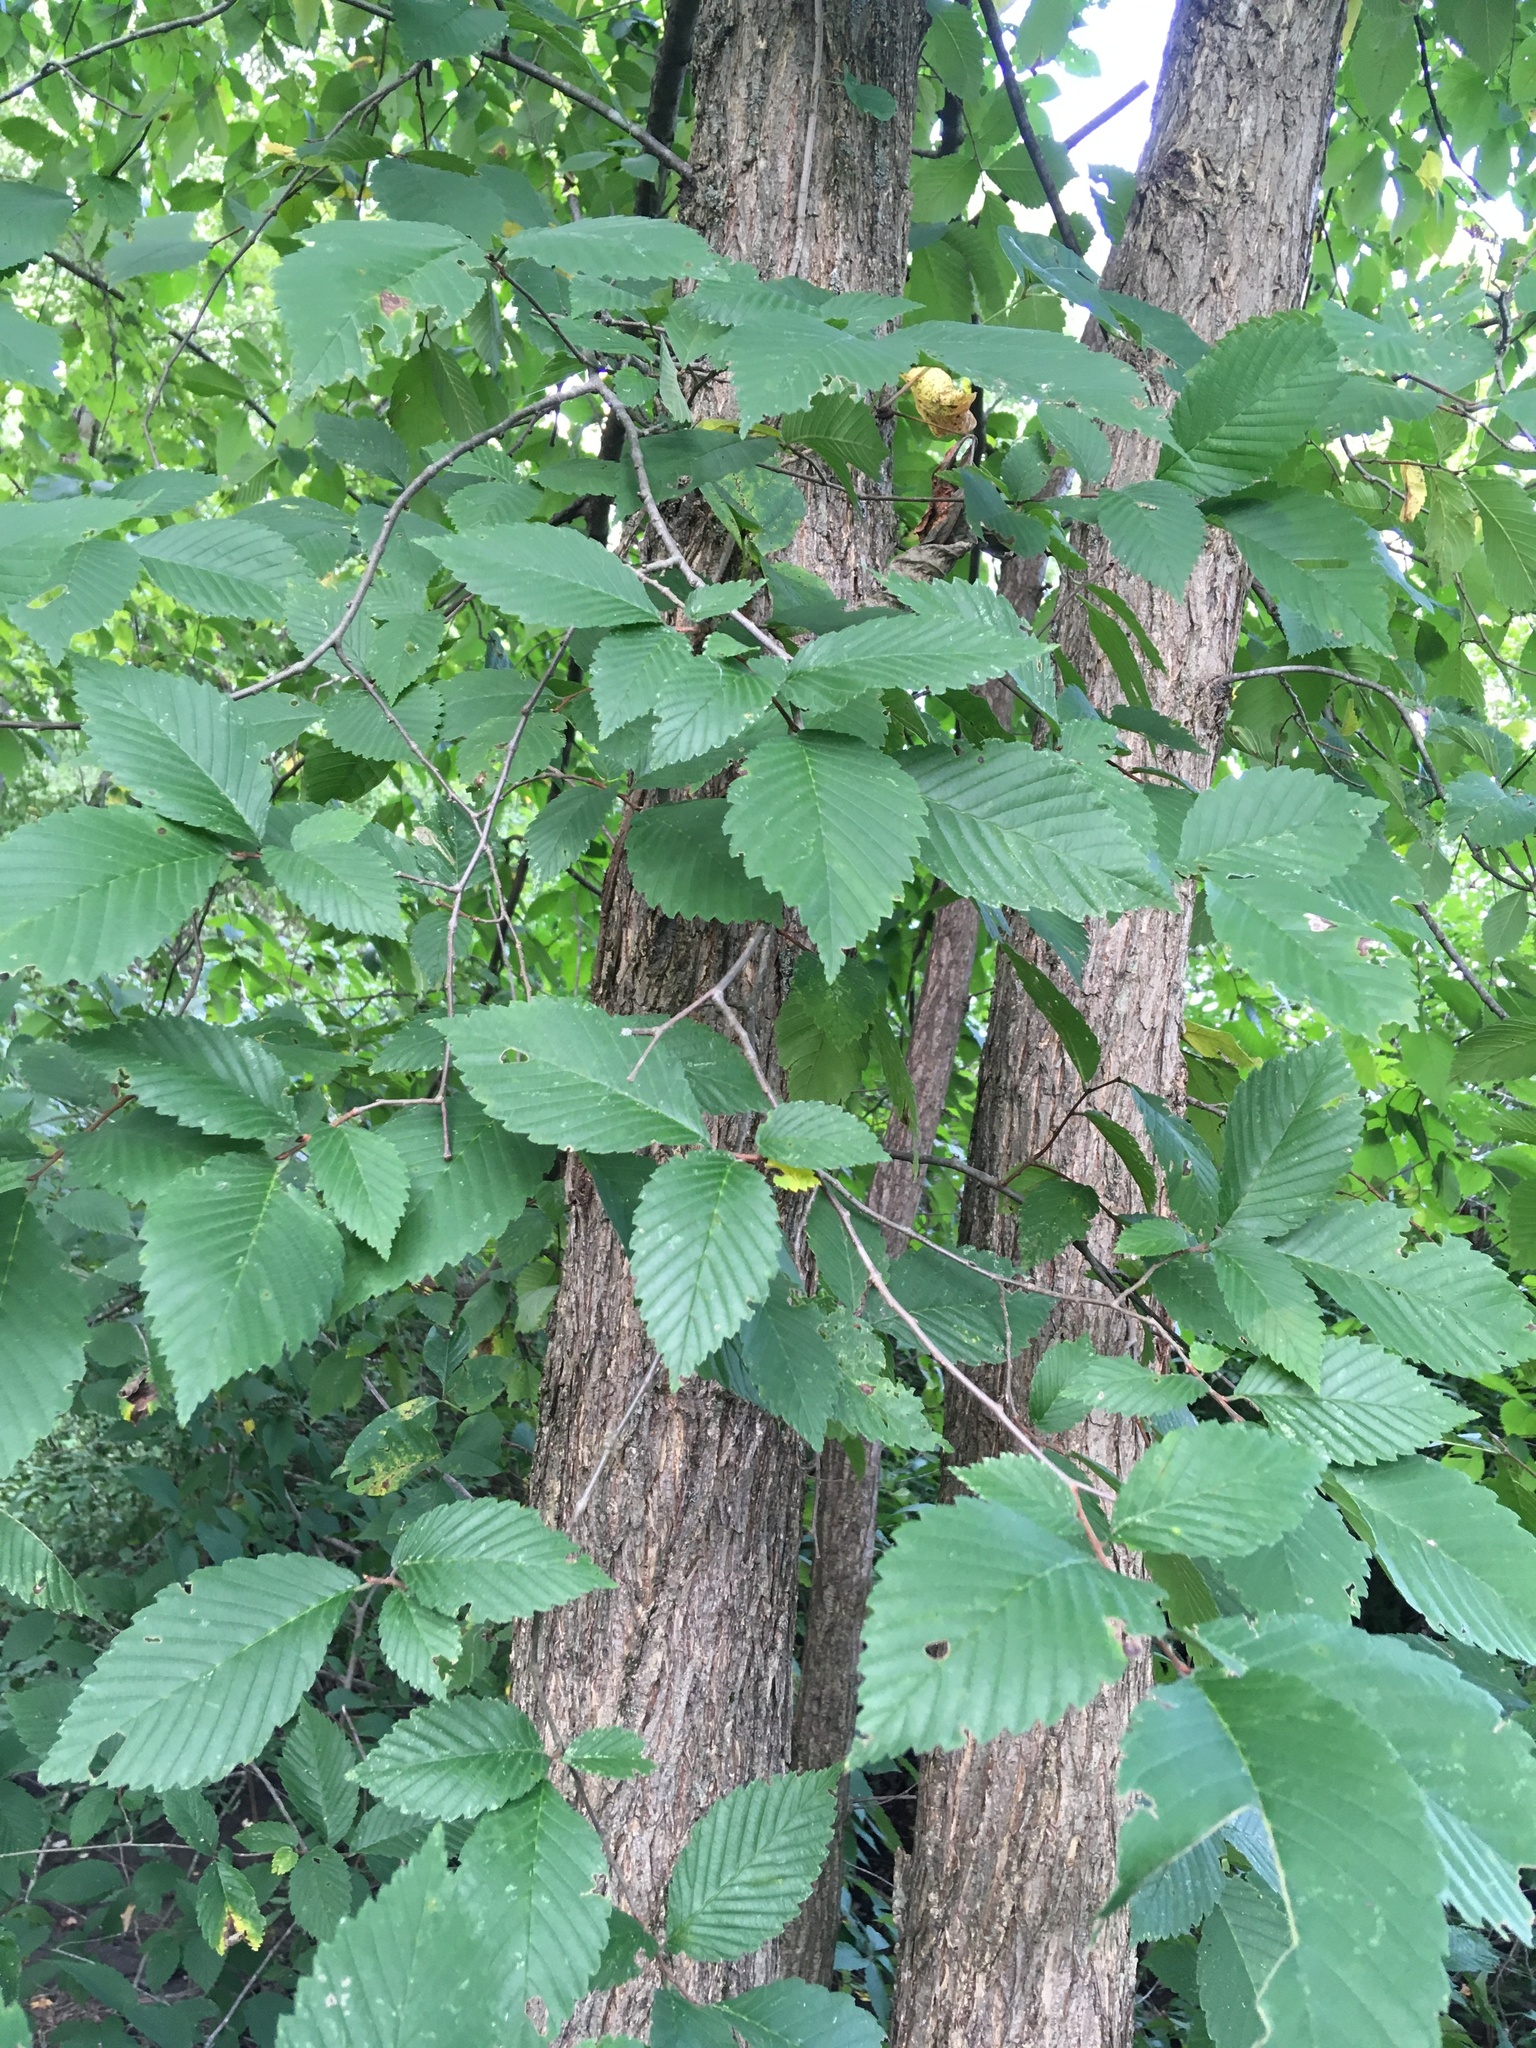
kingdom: Plantae
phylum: Tracheophyta
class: Magnoliopsida
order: Rosales
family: Ulmaceae
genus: Ulmus
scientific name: Ulmus americana
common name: American elm
